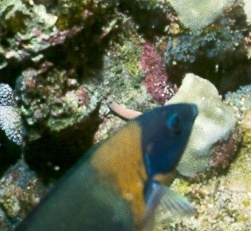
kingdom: Animalia
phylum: Chordata
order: Perciformes
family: Labridae
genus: Thalassoma
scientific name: Thalassoma duperrey
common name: Saddle wrasse
